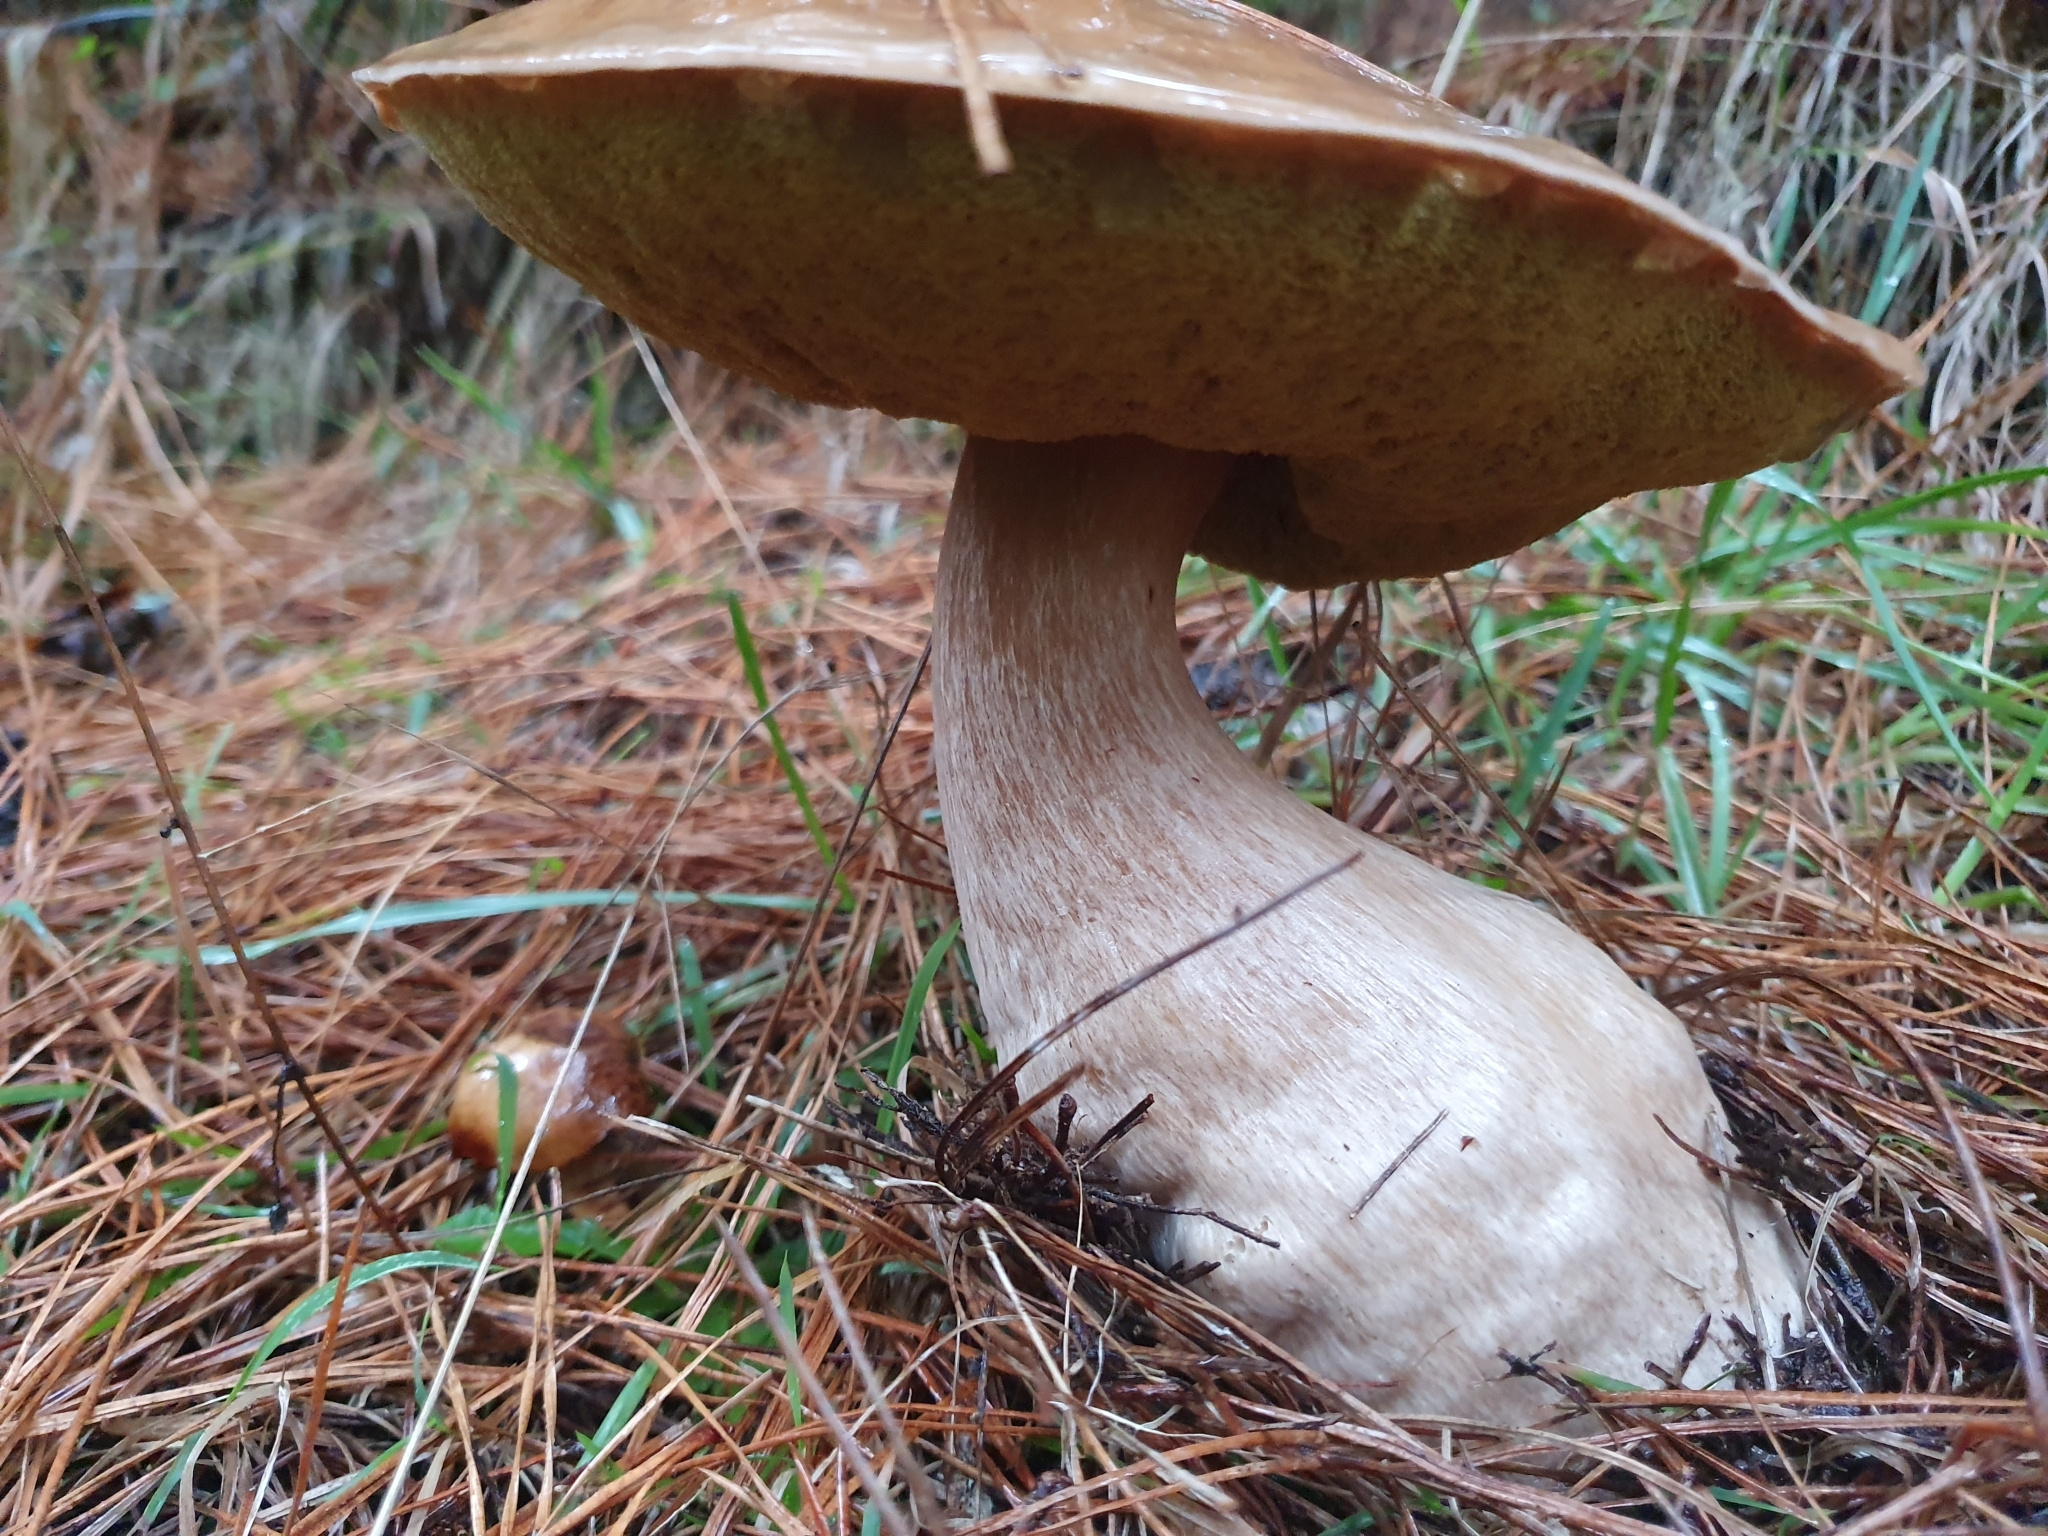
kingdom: Fungi
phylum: Basidiomycota
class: Agaricomycetes
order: Boletales
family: Boletaceae
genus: Boletus
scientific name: Boletus edulis
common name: Cep
